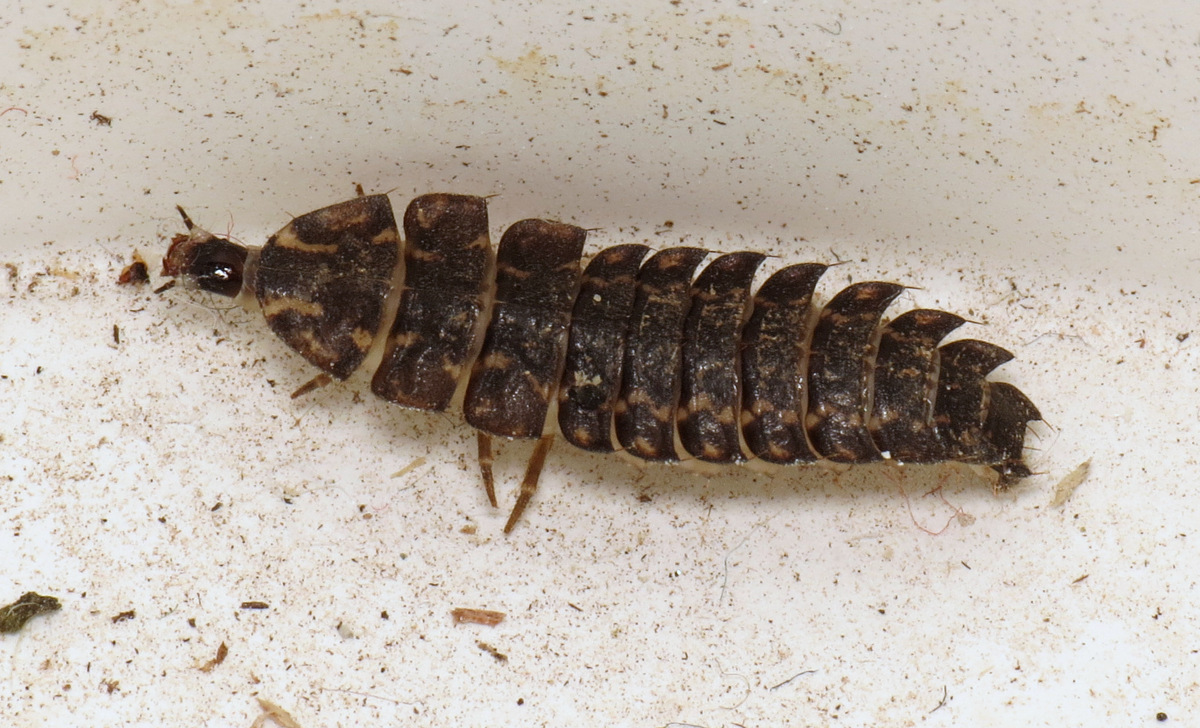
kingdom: Animalia
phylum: Arthropoda
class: Insecta
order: Coleoptera
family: Lampyridae
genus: Photuris
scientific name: Photuris
